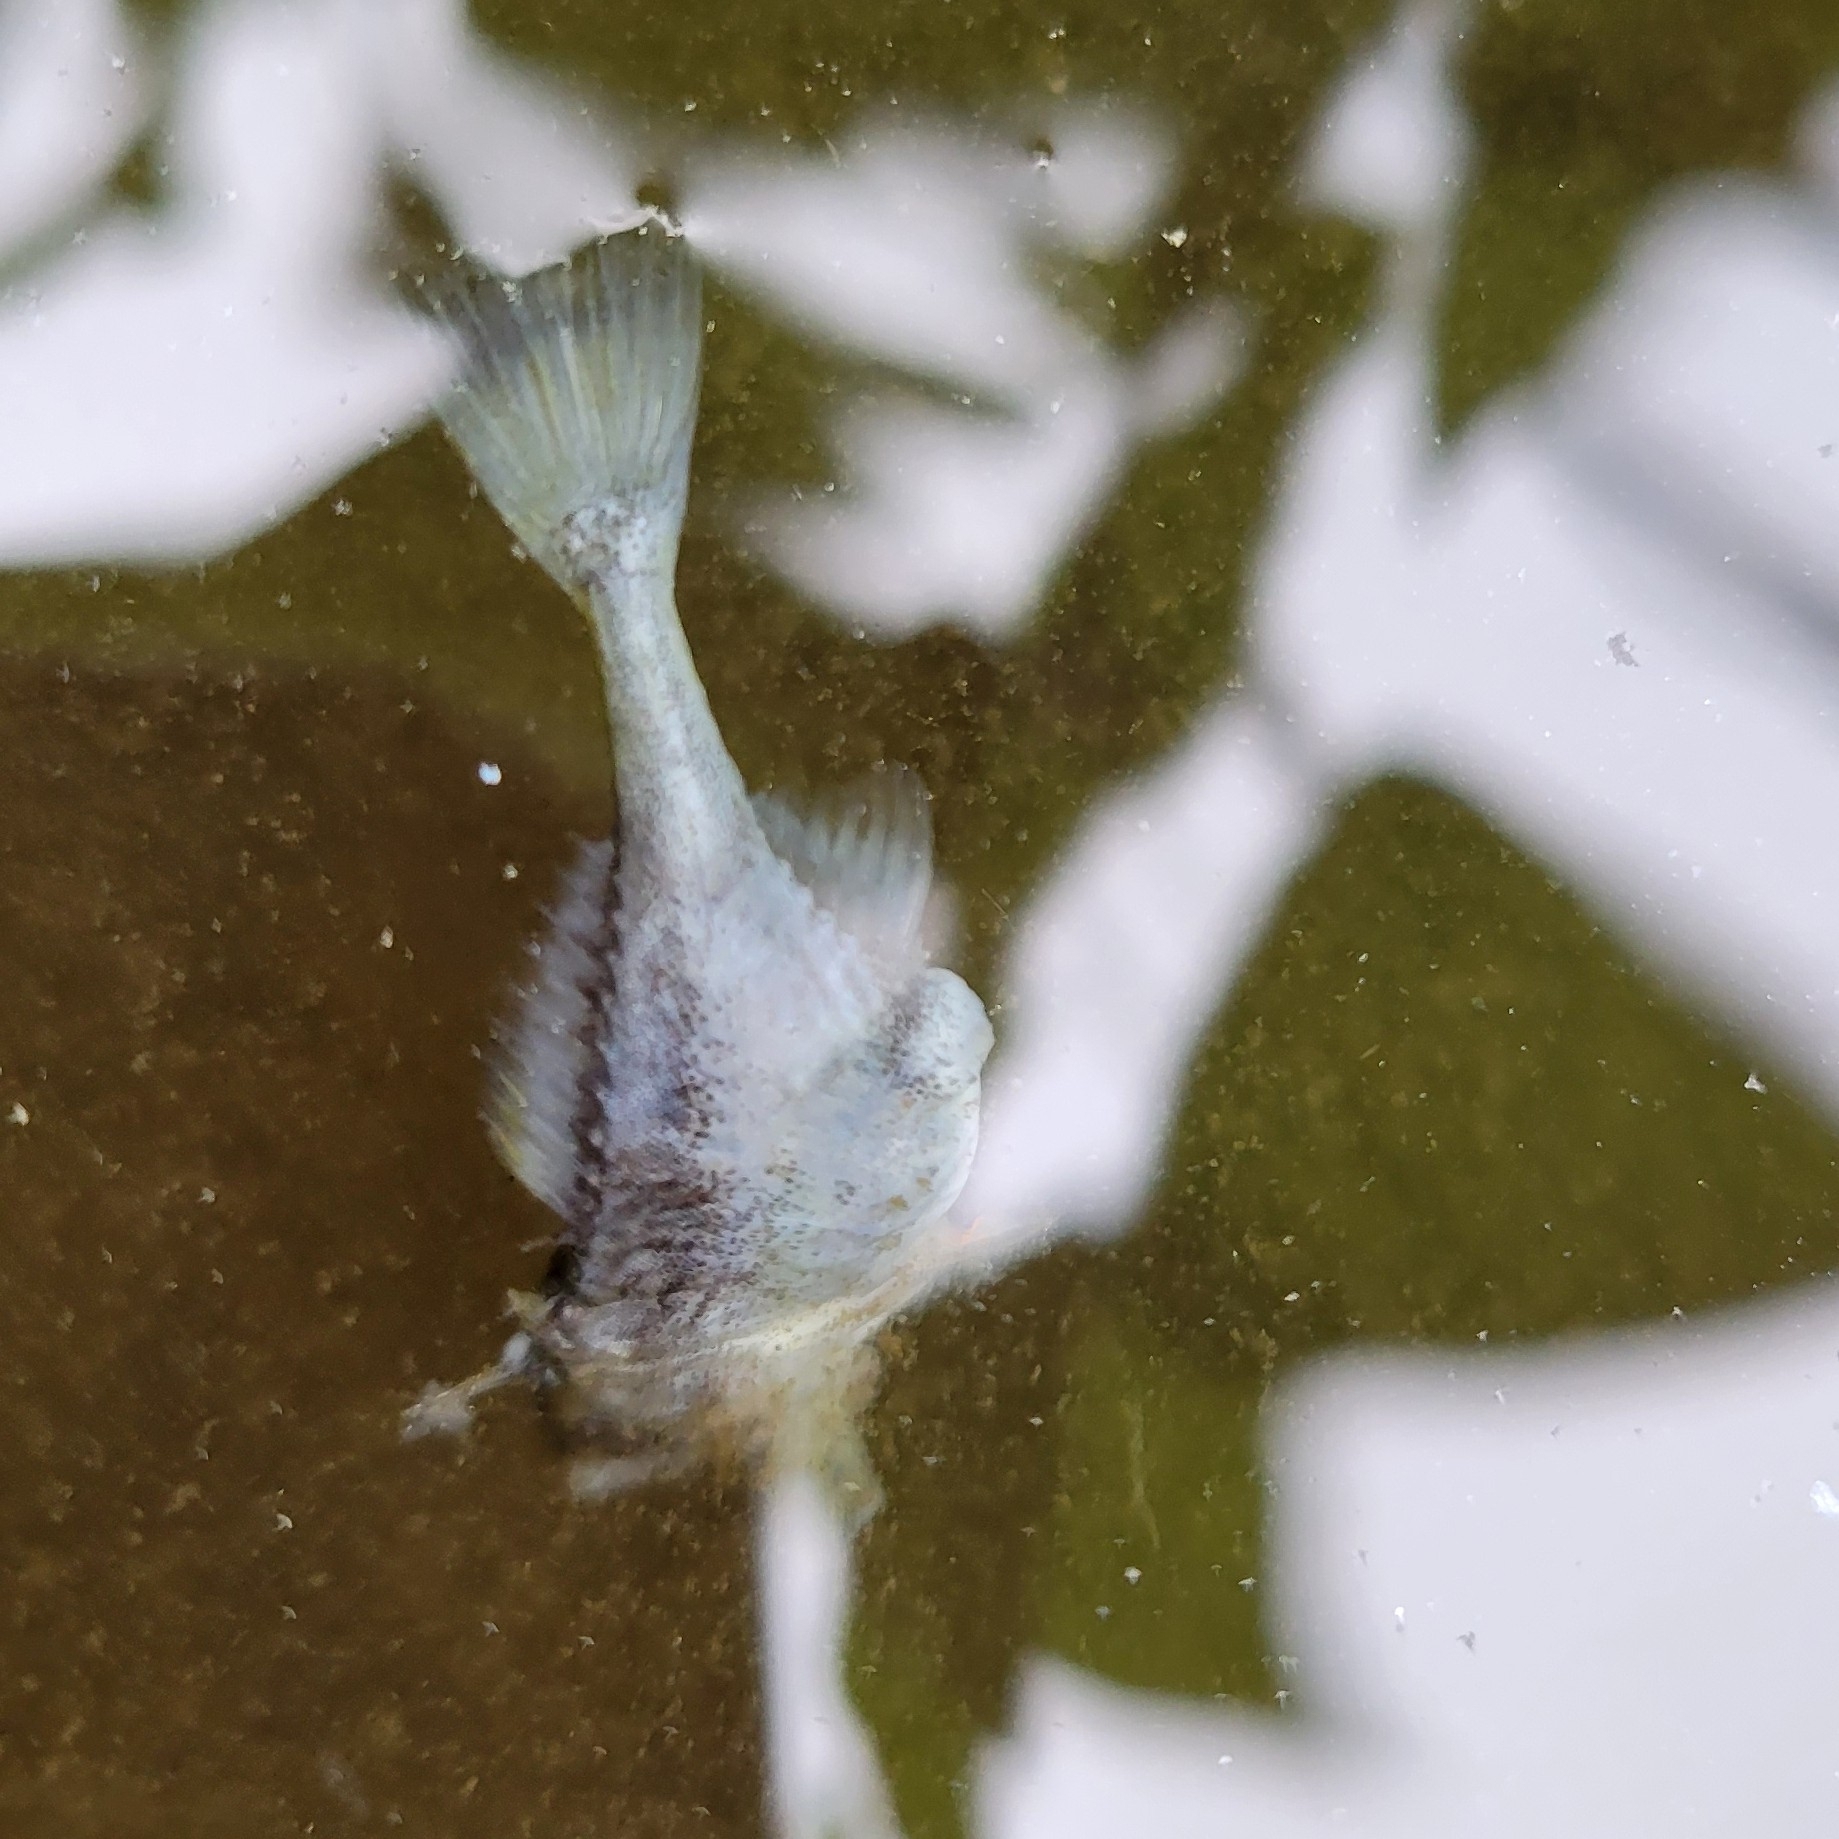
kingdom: Animalia
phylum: Chordata
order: Gasterosteiformes
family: Gasterosteidae
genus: Gasterosteus
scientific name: Gasterosteus aculeatus
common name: Three-spined stickleback
